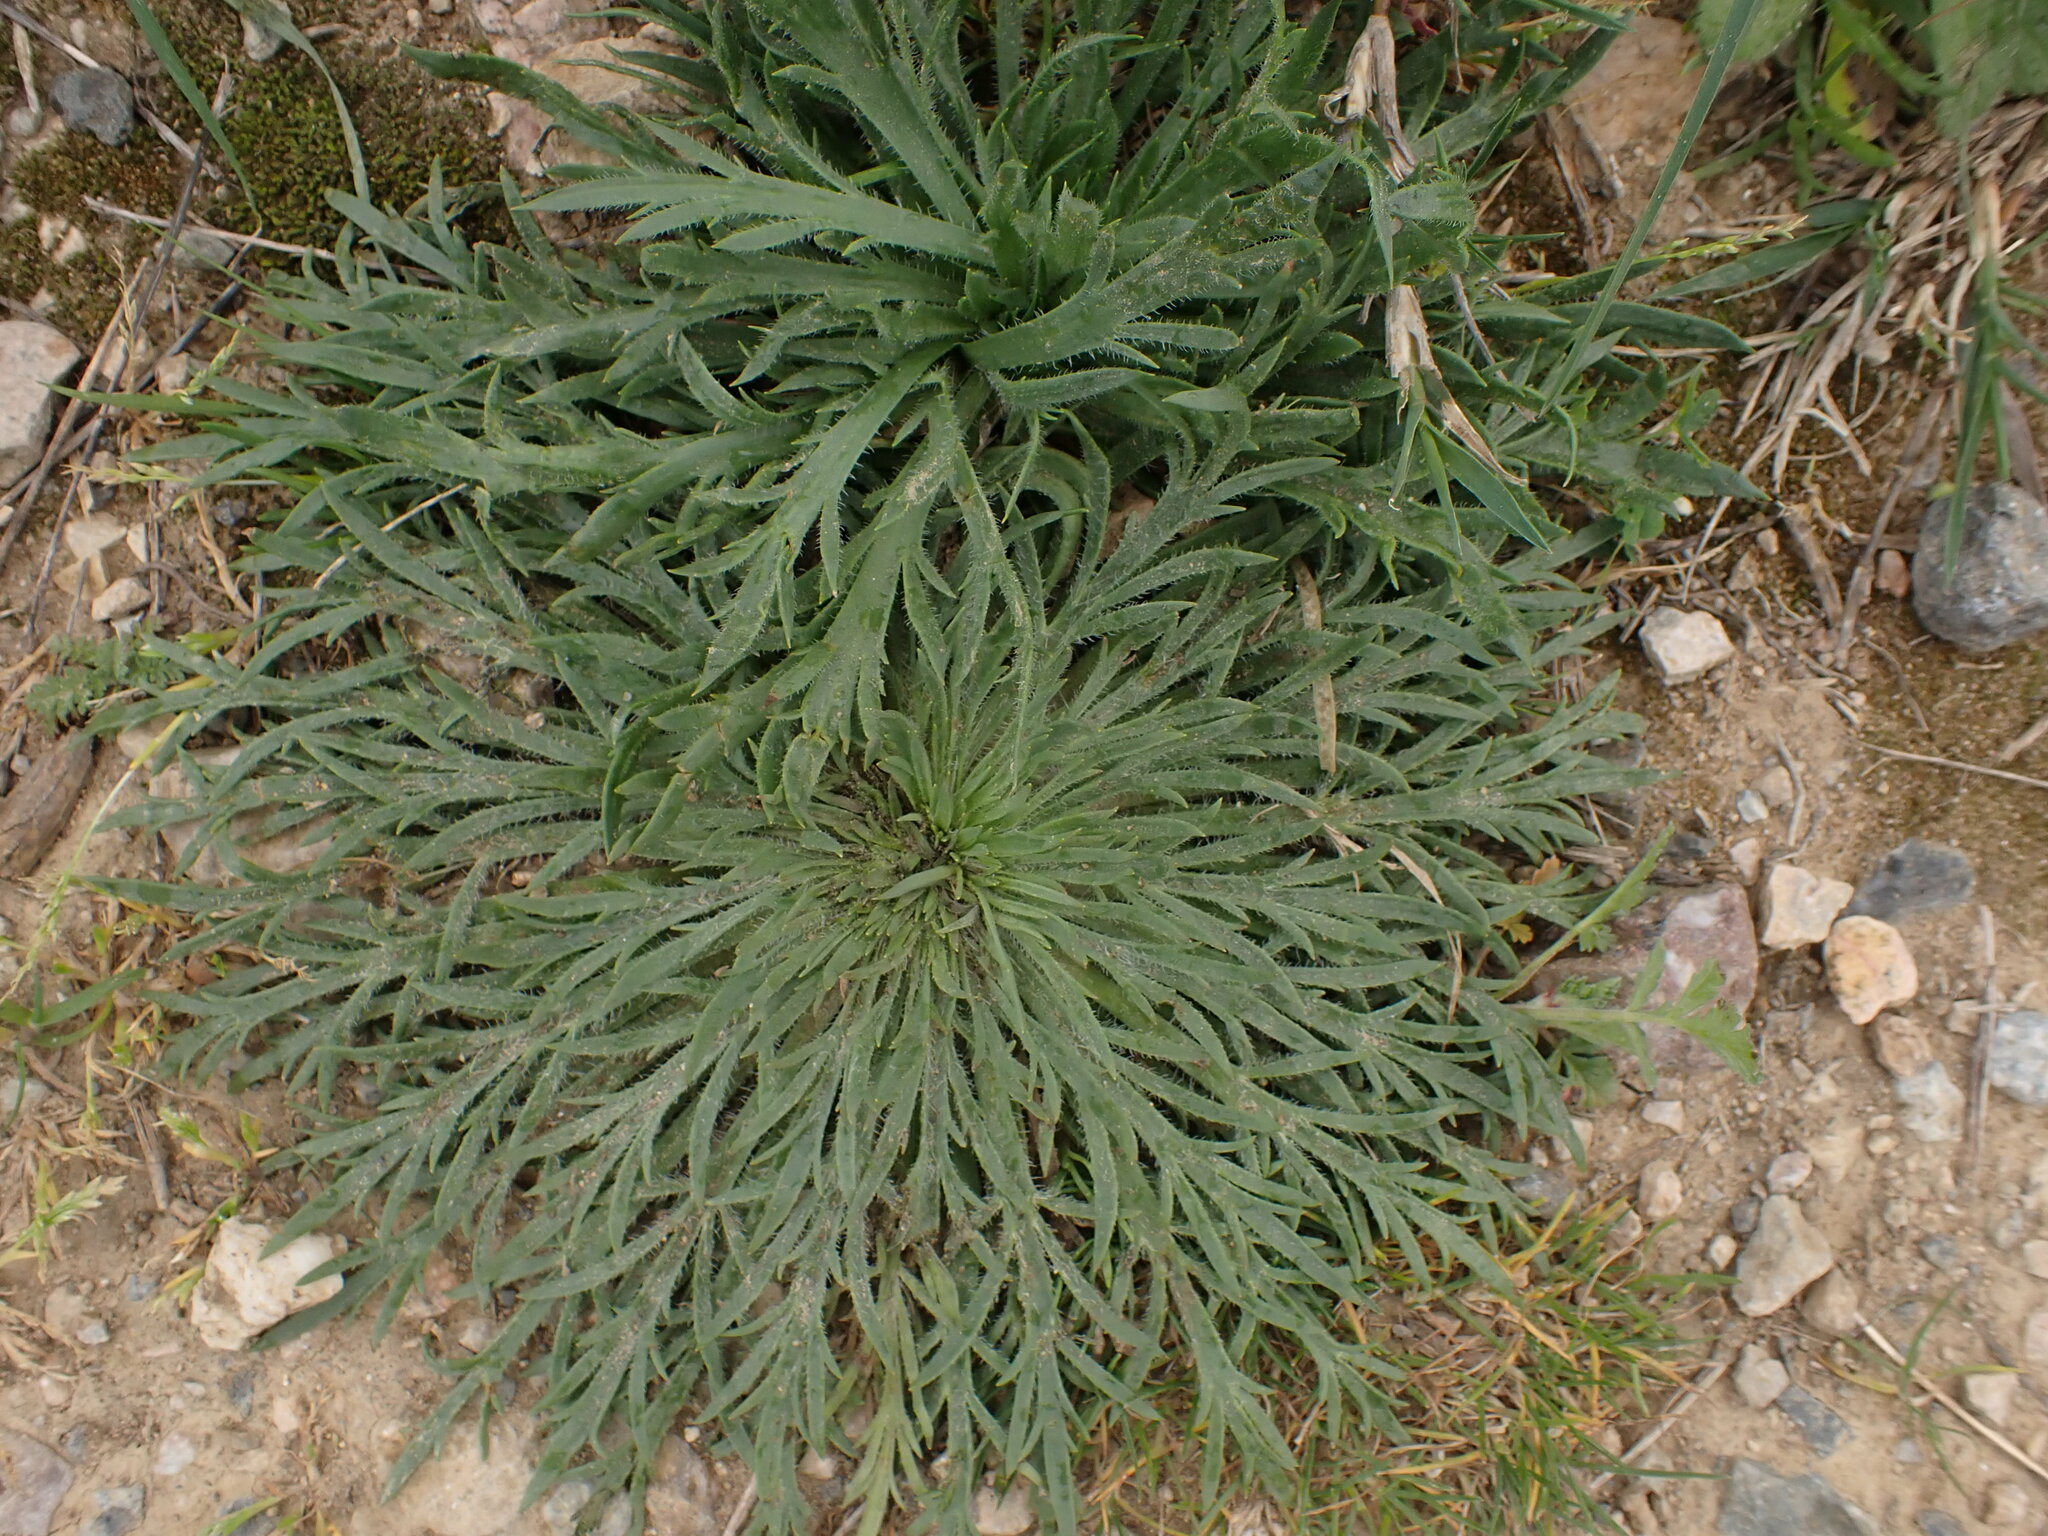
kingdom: Plantae
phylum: Tracheophyta
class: Magnoliopsida
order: Lamiales
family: Plantaginaceae
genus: Plantago
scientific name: Plantago coronopus
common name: Buck's-horn plantain
